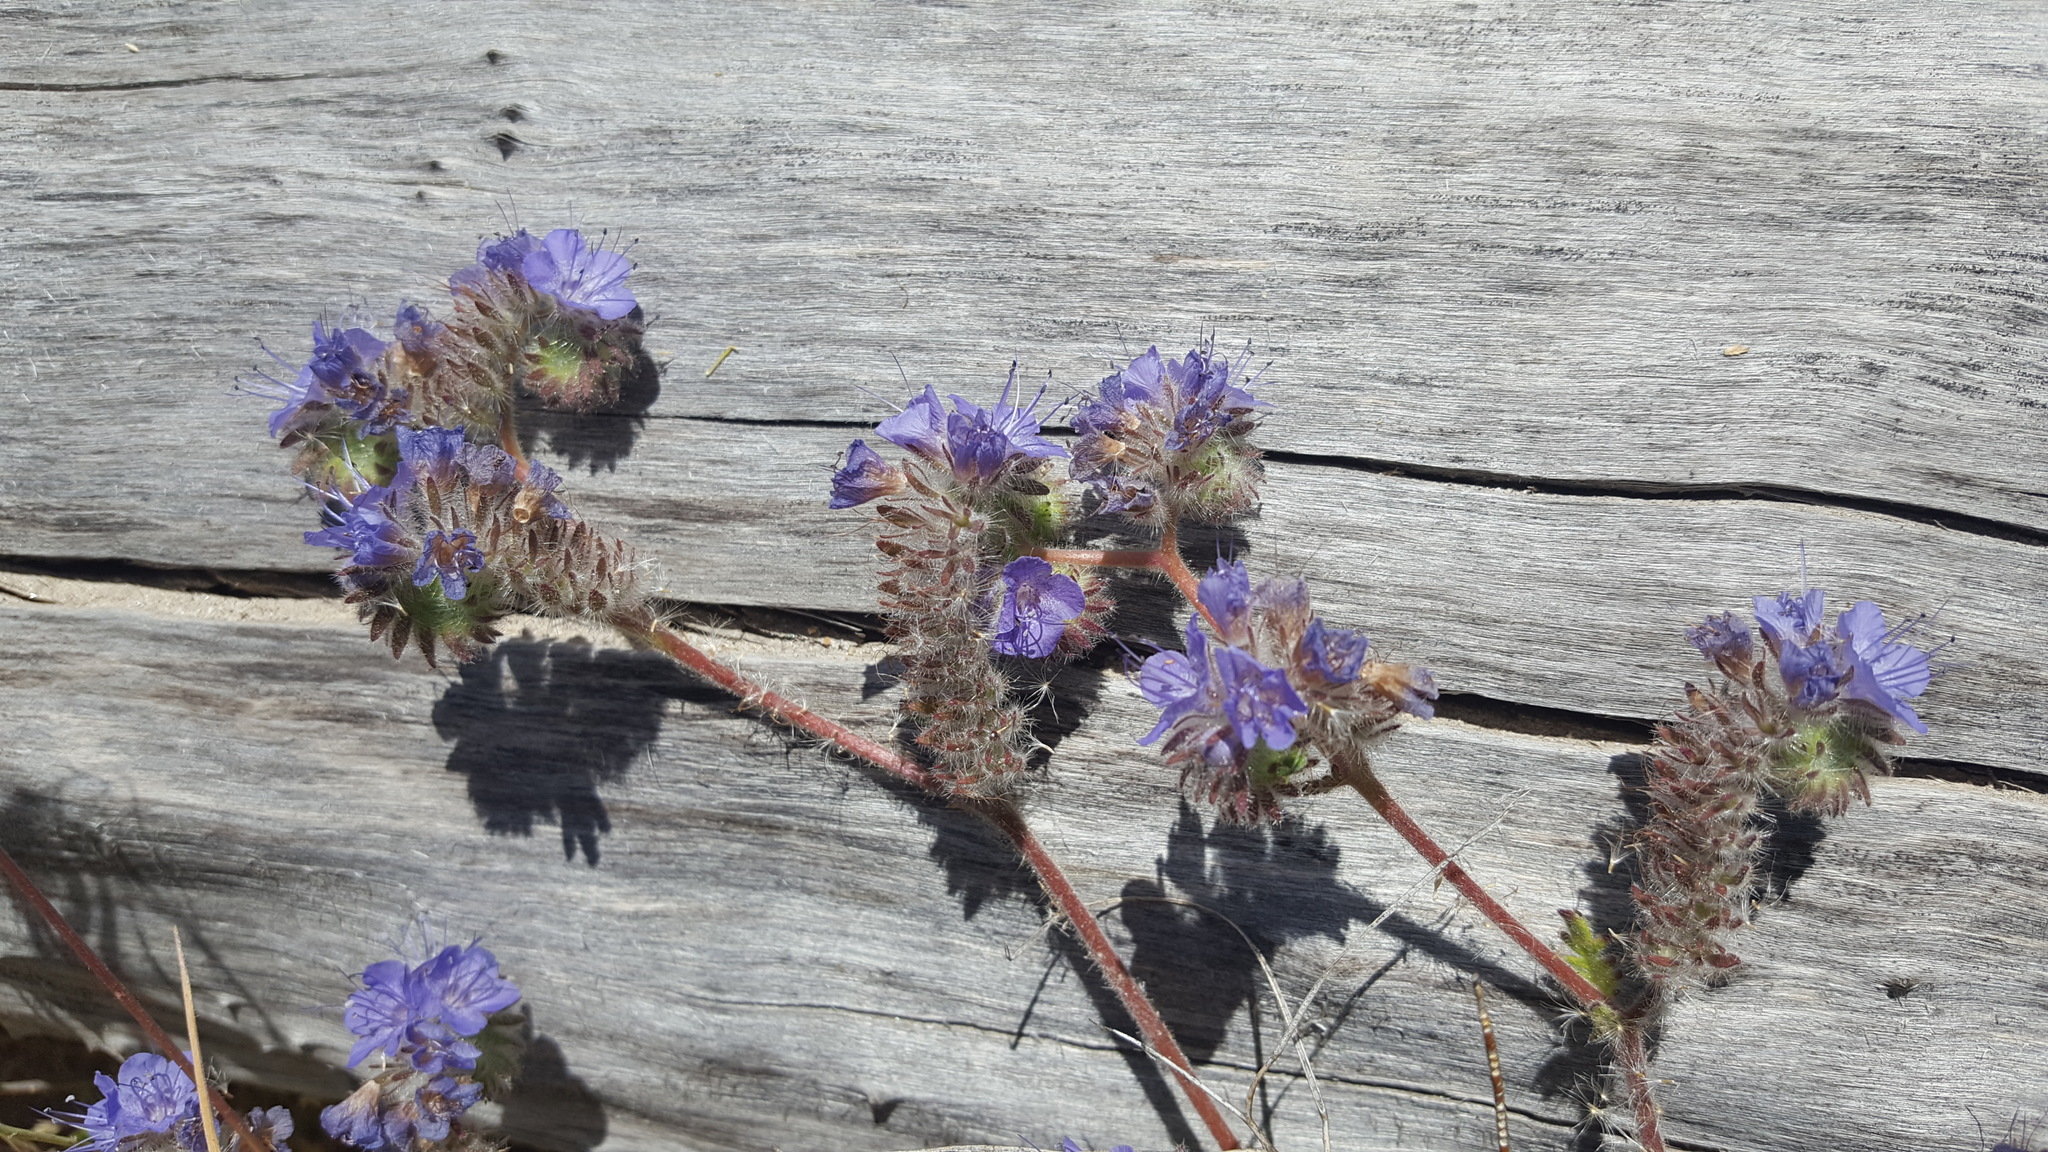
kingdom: Plantae
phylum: Tracheophyta
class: Magnoliopsida
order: Boraginales
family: Hydrophyllaceae
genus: Phacelia
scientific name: Phacelia distans
